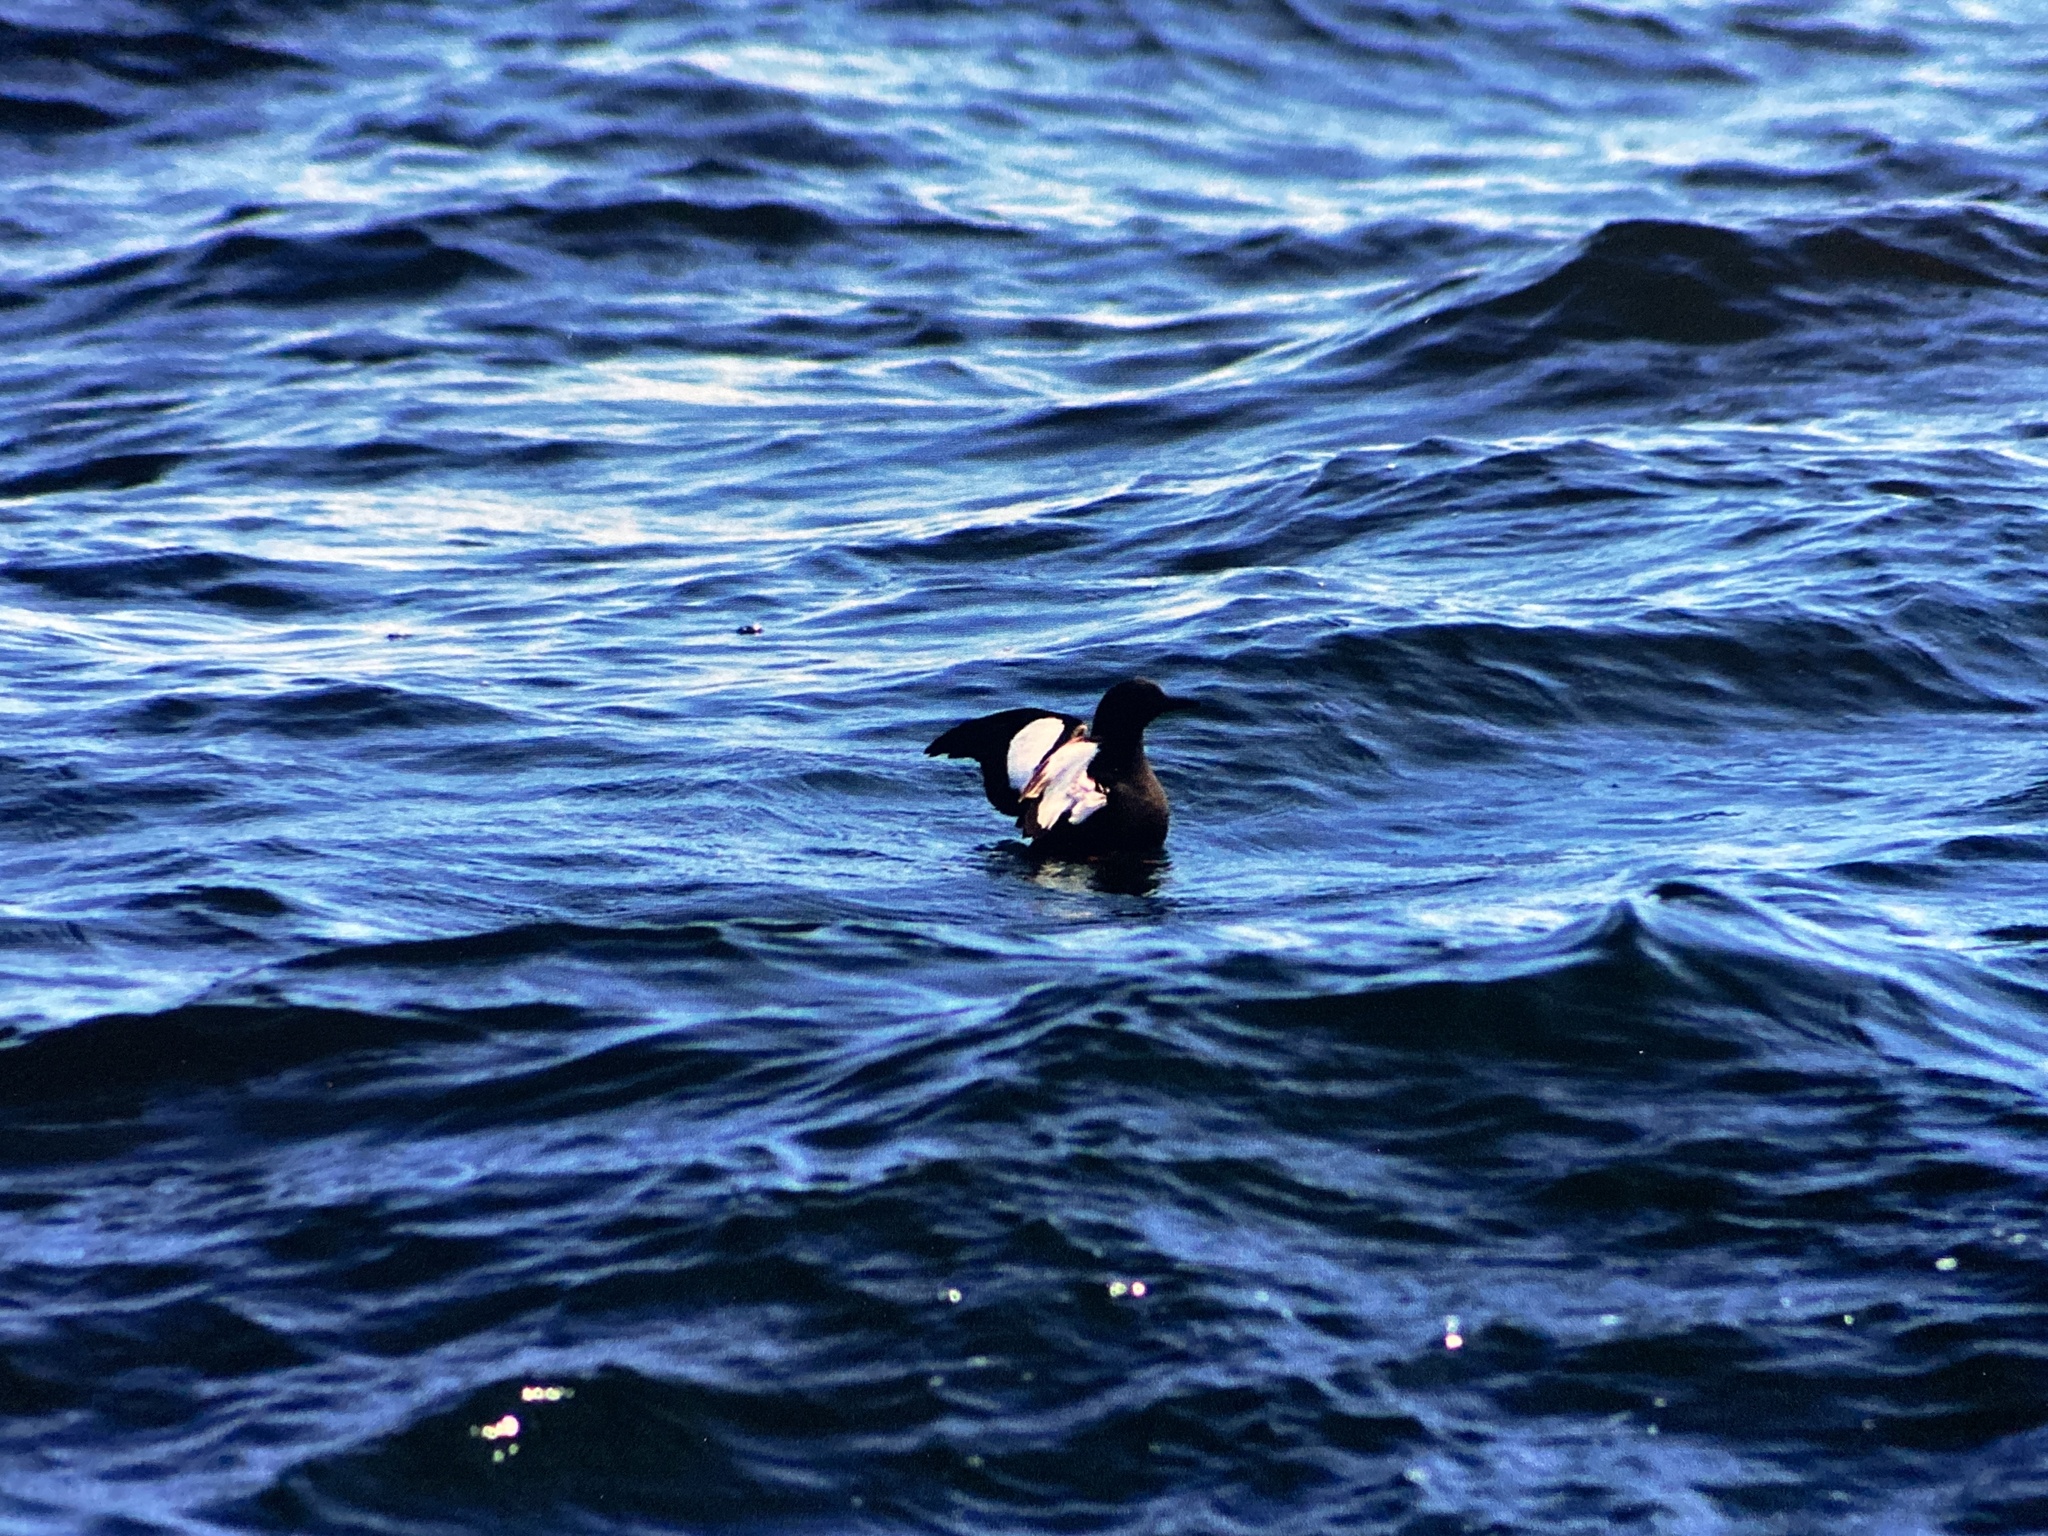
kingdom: Animalia
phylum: Chordata
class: Aves
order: Charadriiformes
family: Alcidae
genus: Cepphus
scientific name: Cepphus grylle
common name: Black guillemot
